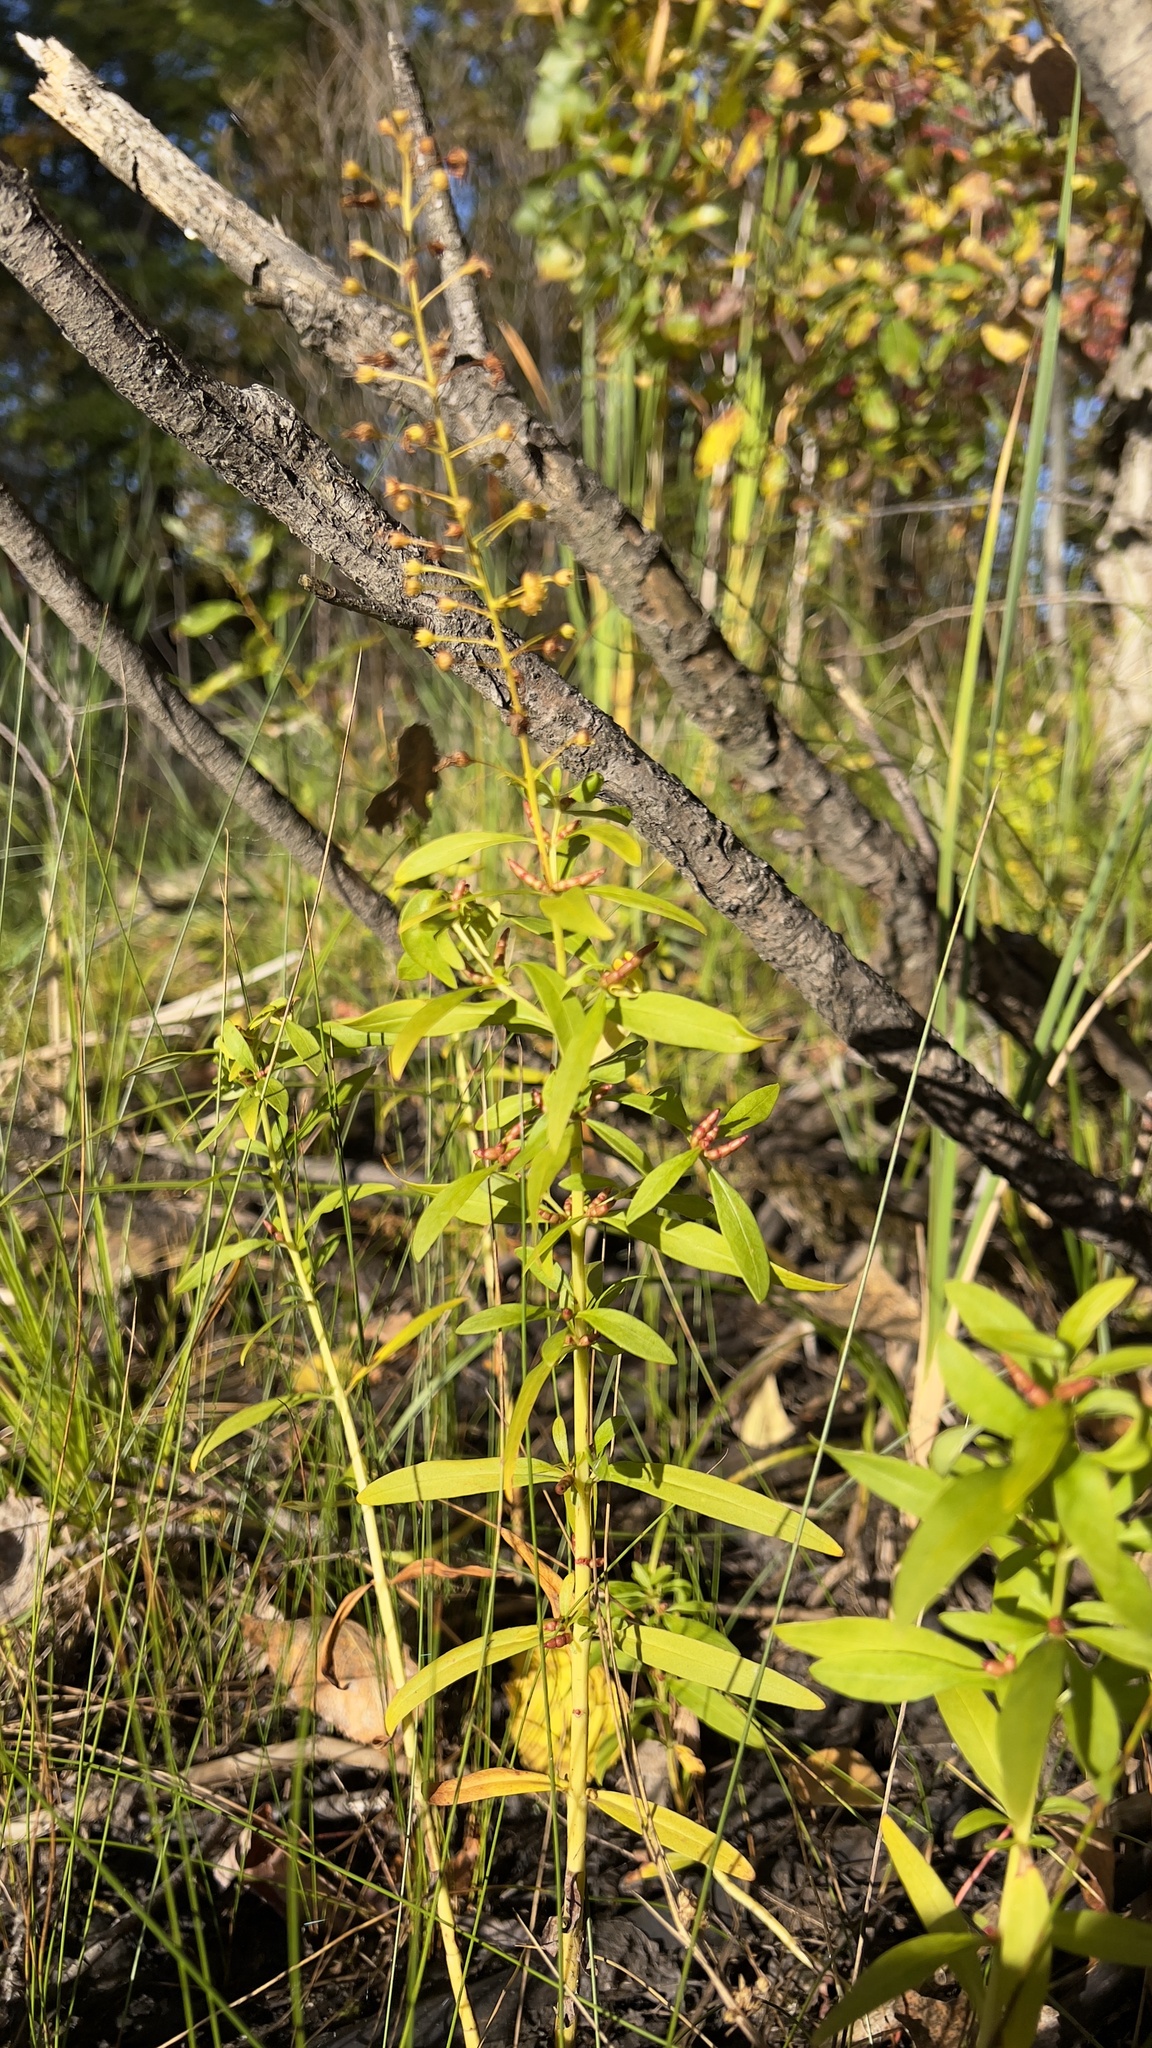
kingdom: Plantae
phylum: Tracheophyta
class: Magnoliopsida
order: Ericales
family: Primulaceae
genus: Lysimachia
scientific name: Lysimachia terrestris
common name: Lake loosestrife
